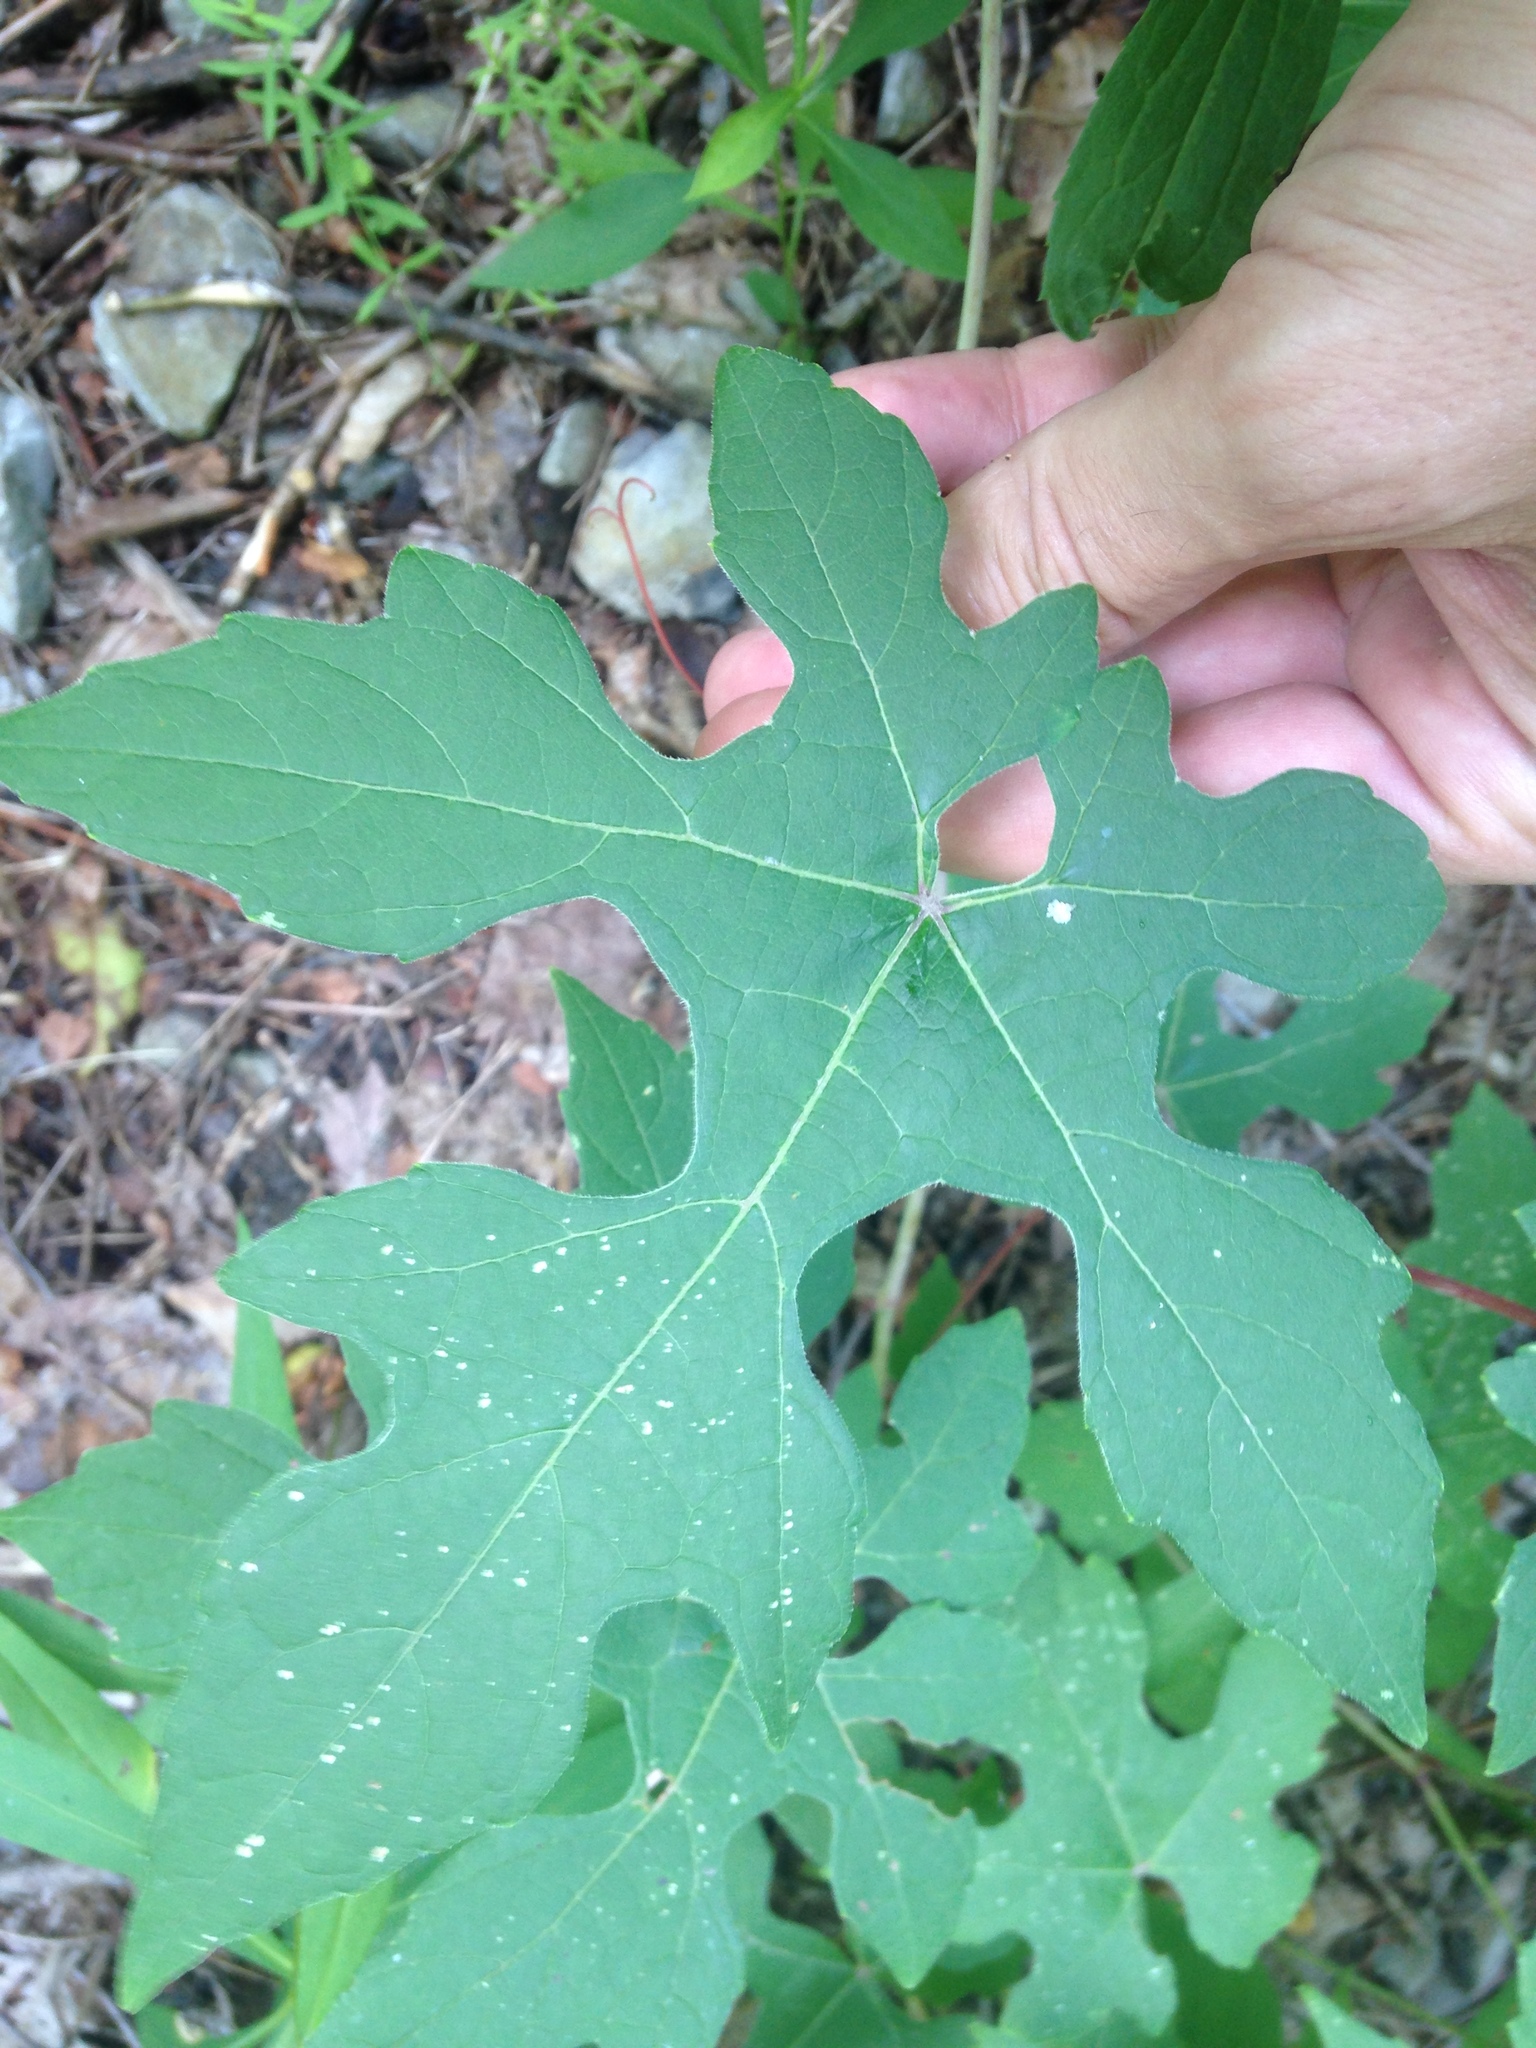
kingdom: Plantae
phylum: Tracheophyta
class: Magnoliopsida
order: Vitales
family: Vitaceae
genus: Vitis
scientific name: Vitis aestivalis
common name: Pigeon grape
